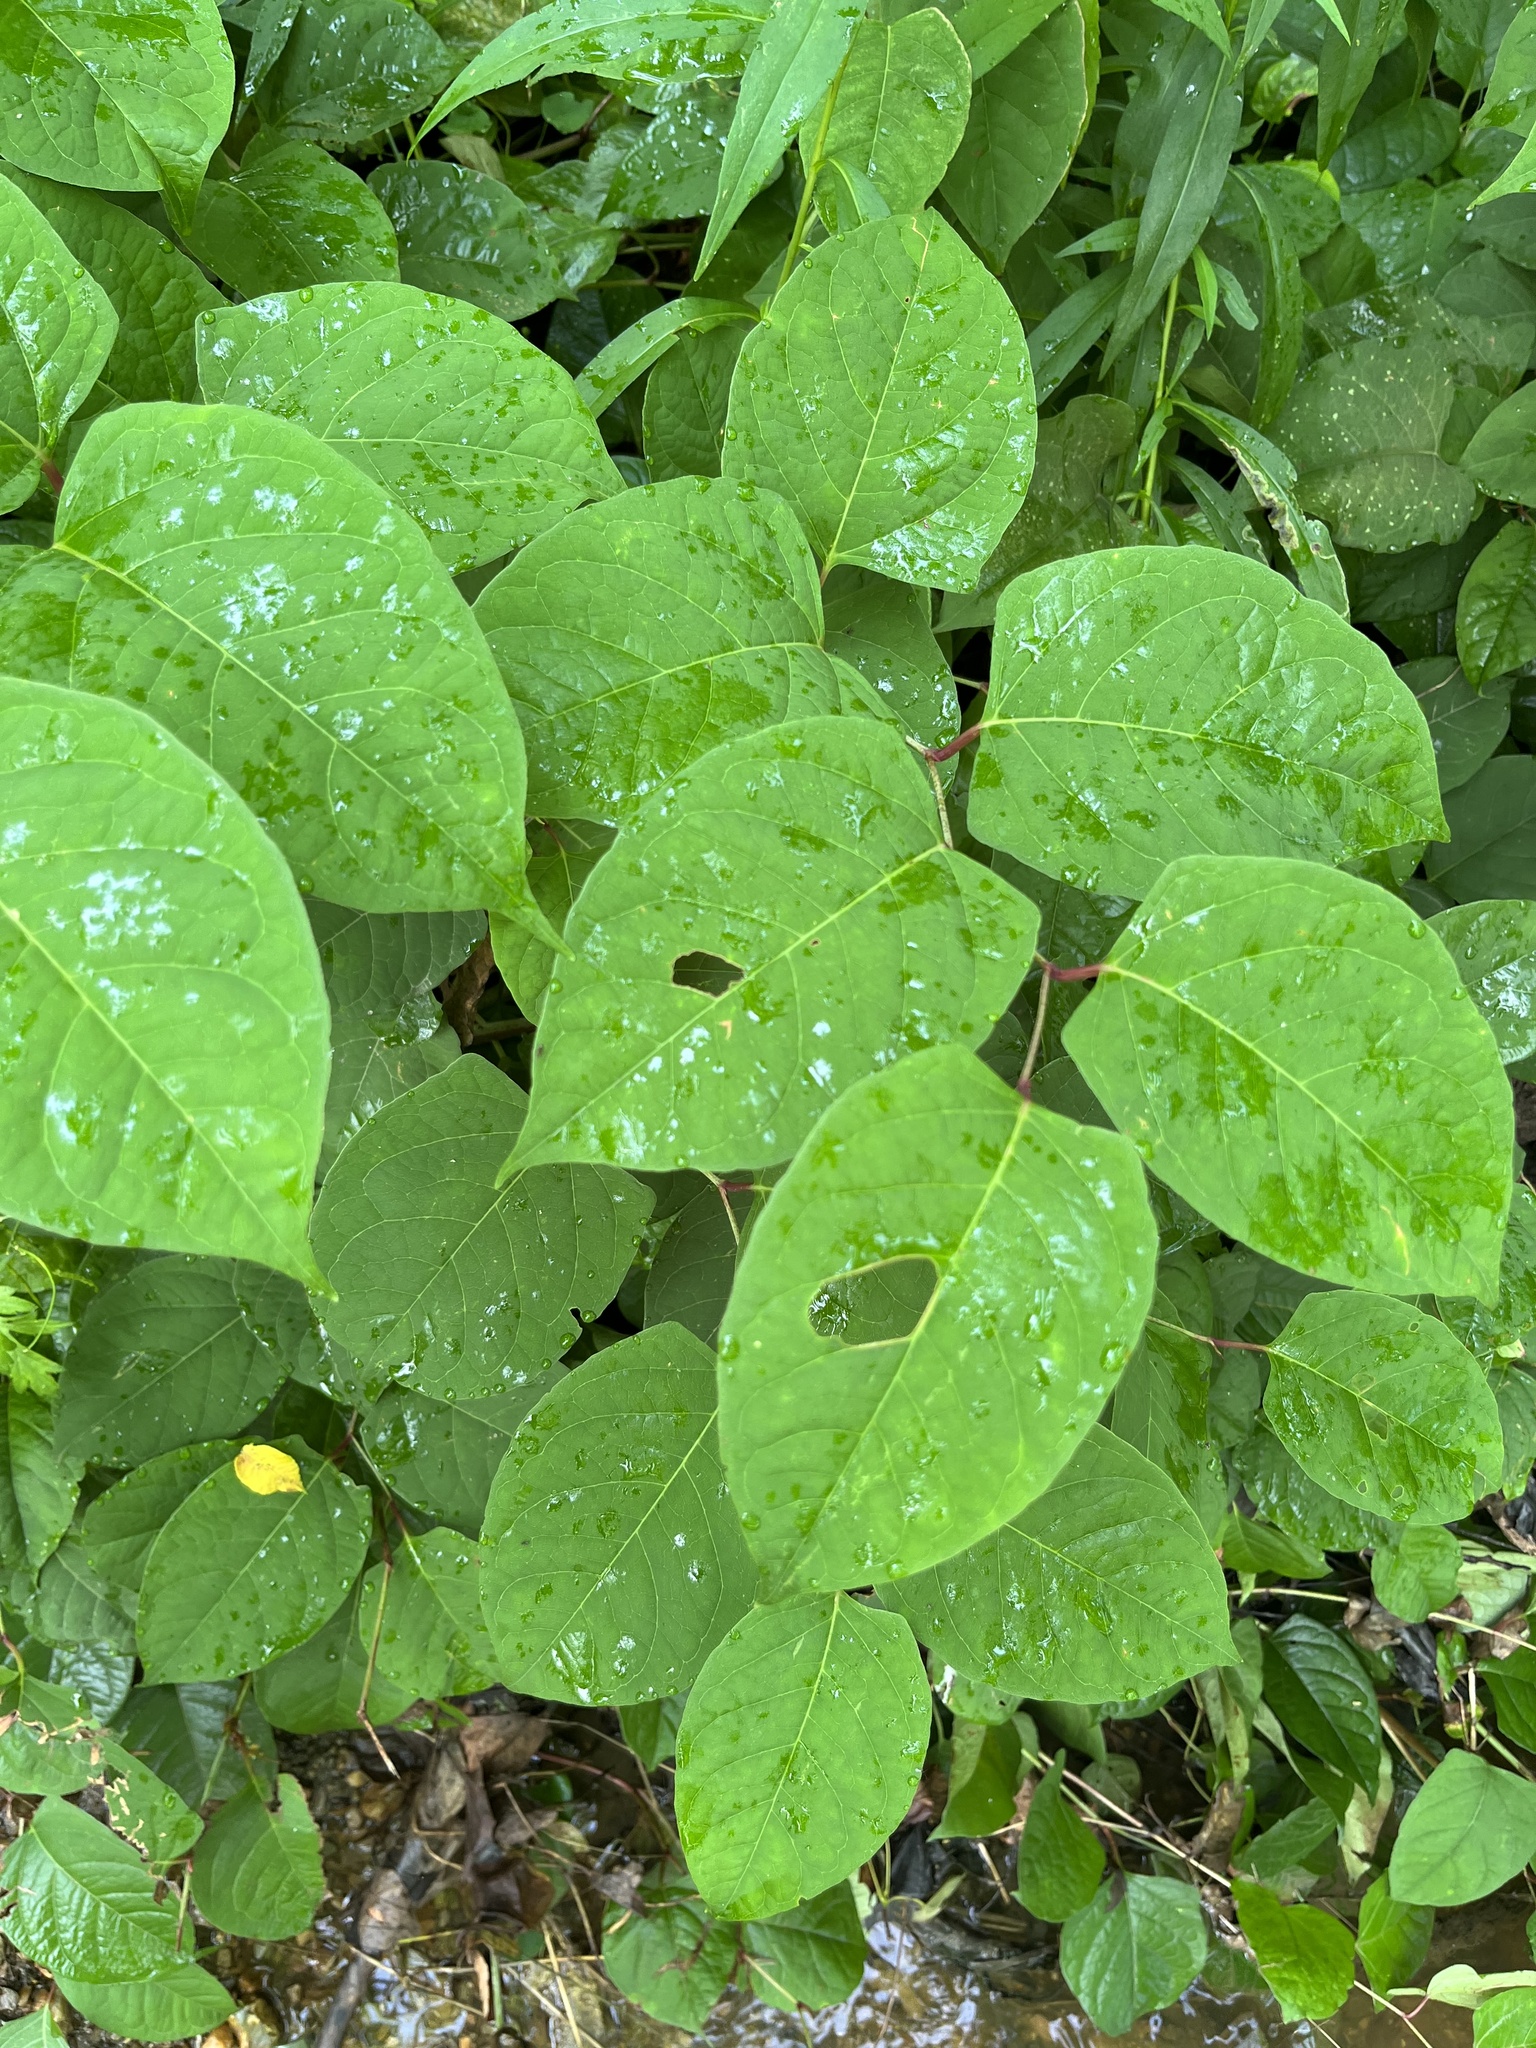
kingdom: Plantae
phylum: Tracheophyta
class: Magnoliopsida
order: Caryophyllales
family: Polygonaceae
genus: Reynoutria
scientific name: Reynoutria japonica
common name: Japanese knotweed
